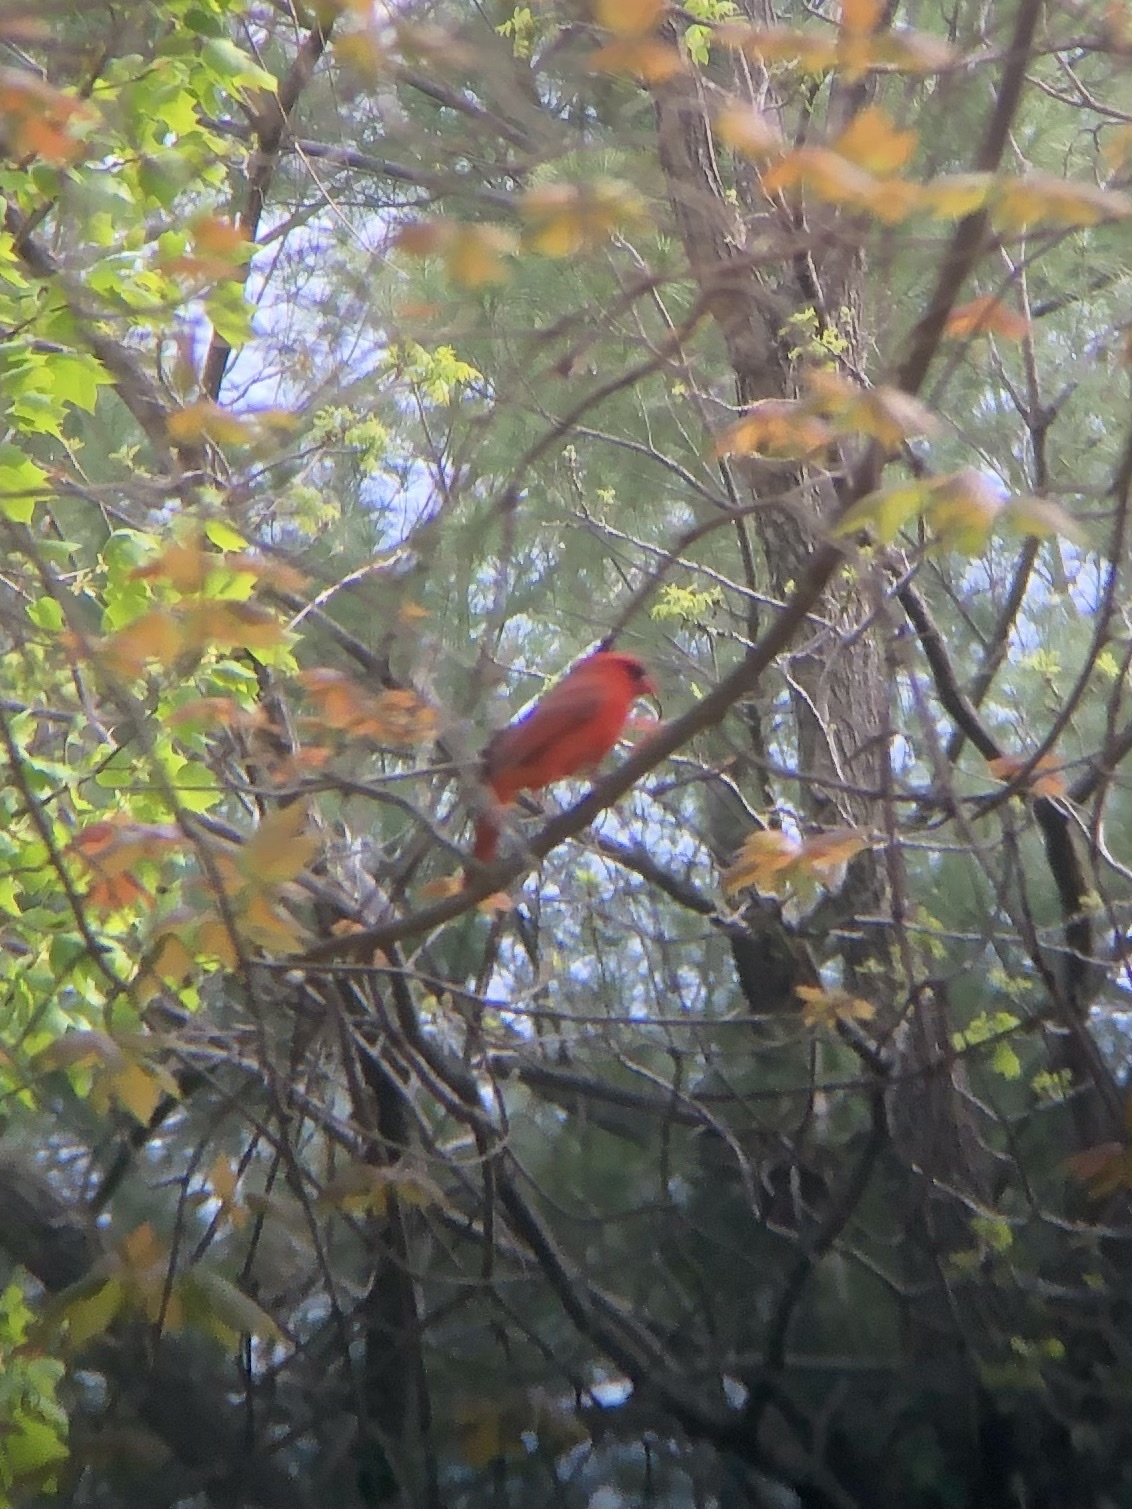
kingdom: Animalia
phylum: Chordata
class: Aves
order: Passeriformes
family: Cardinalidae
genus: Cardinalis
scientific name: Cardinalis cardinalis
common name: Northern cardinal
